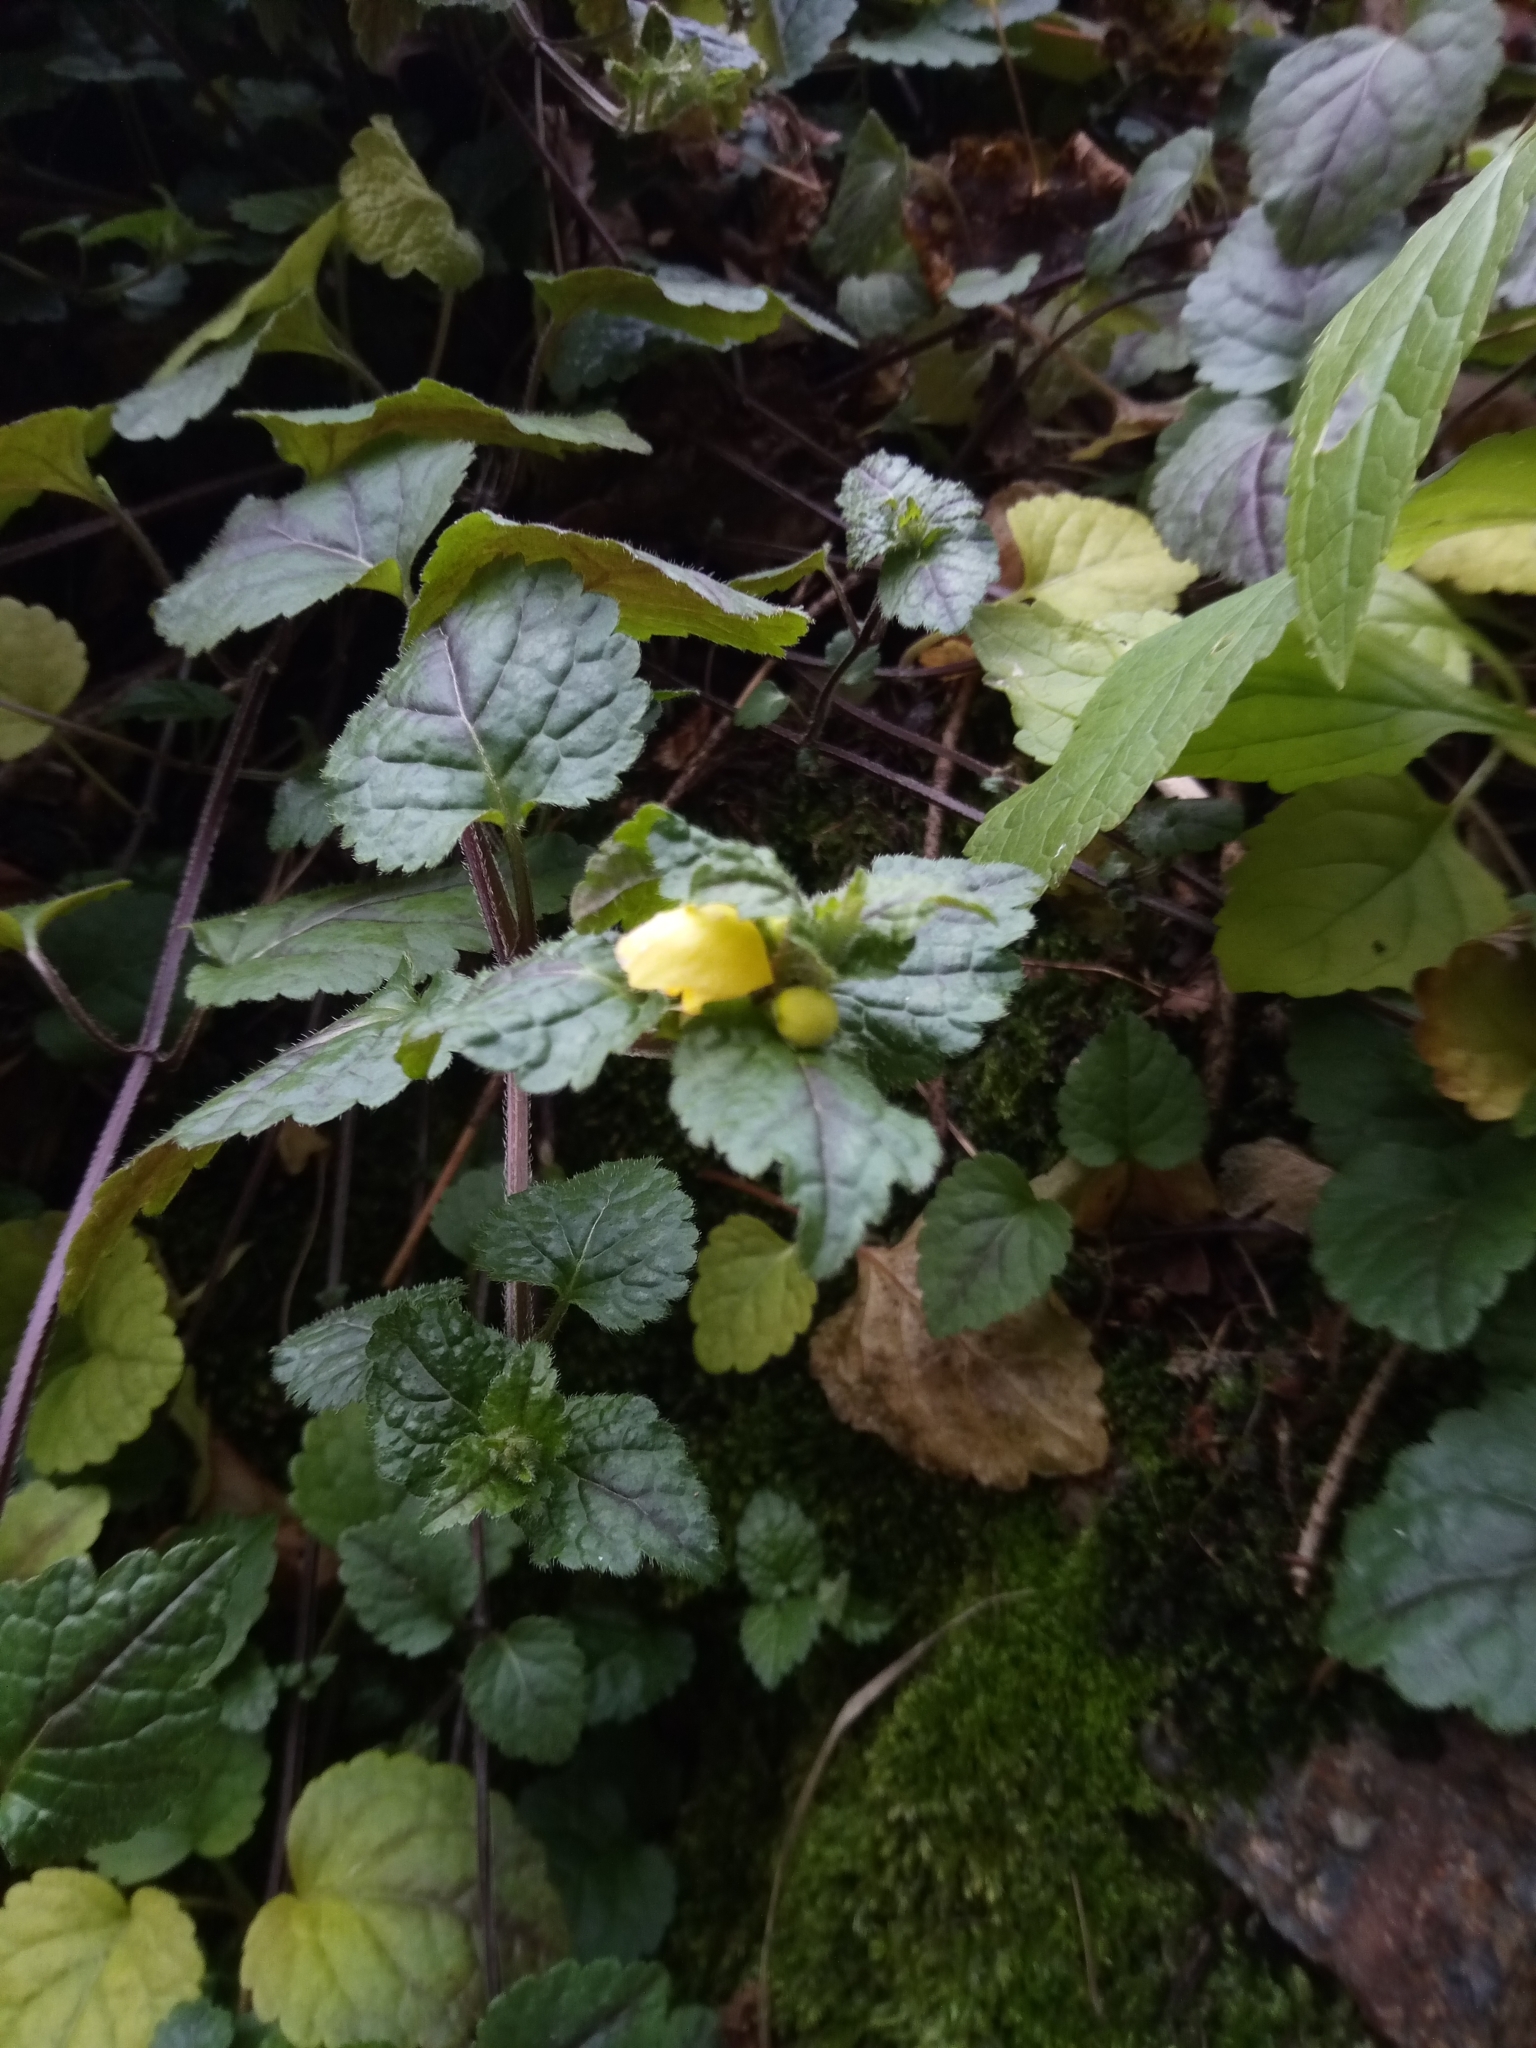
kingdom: Plantae
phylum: Tracheophyta
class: Magnoliopsida
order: Lamiales
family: Lamiaceae
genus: Lamium
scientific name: Lamium galeobdolon
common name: Yellow archangel
